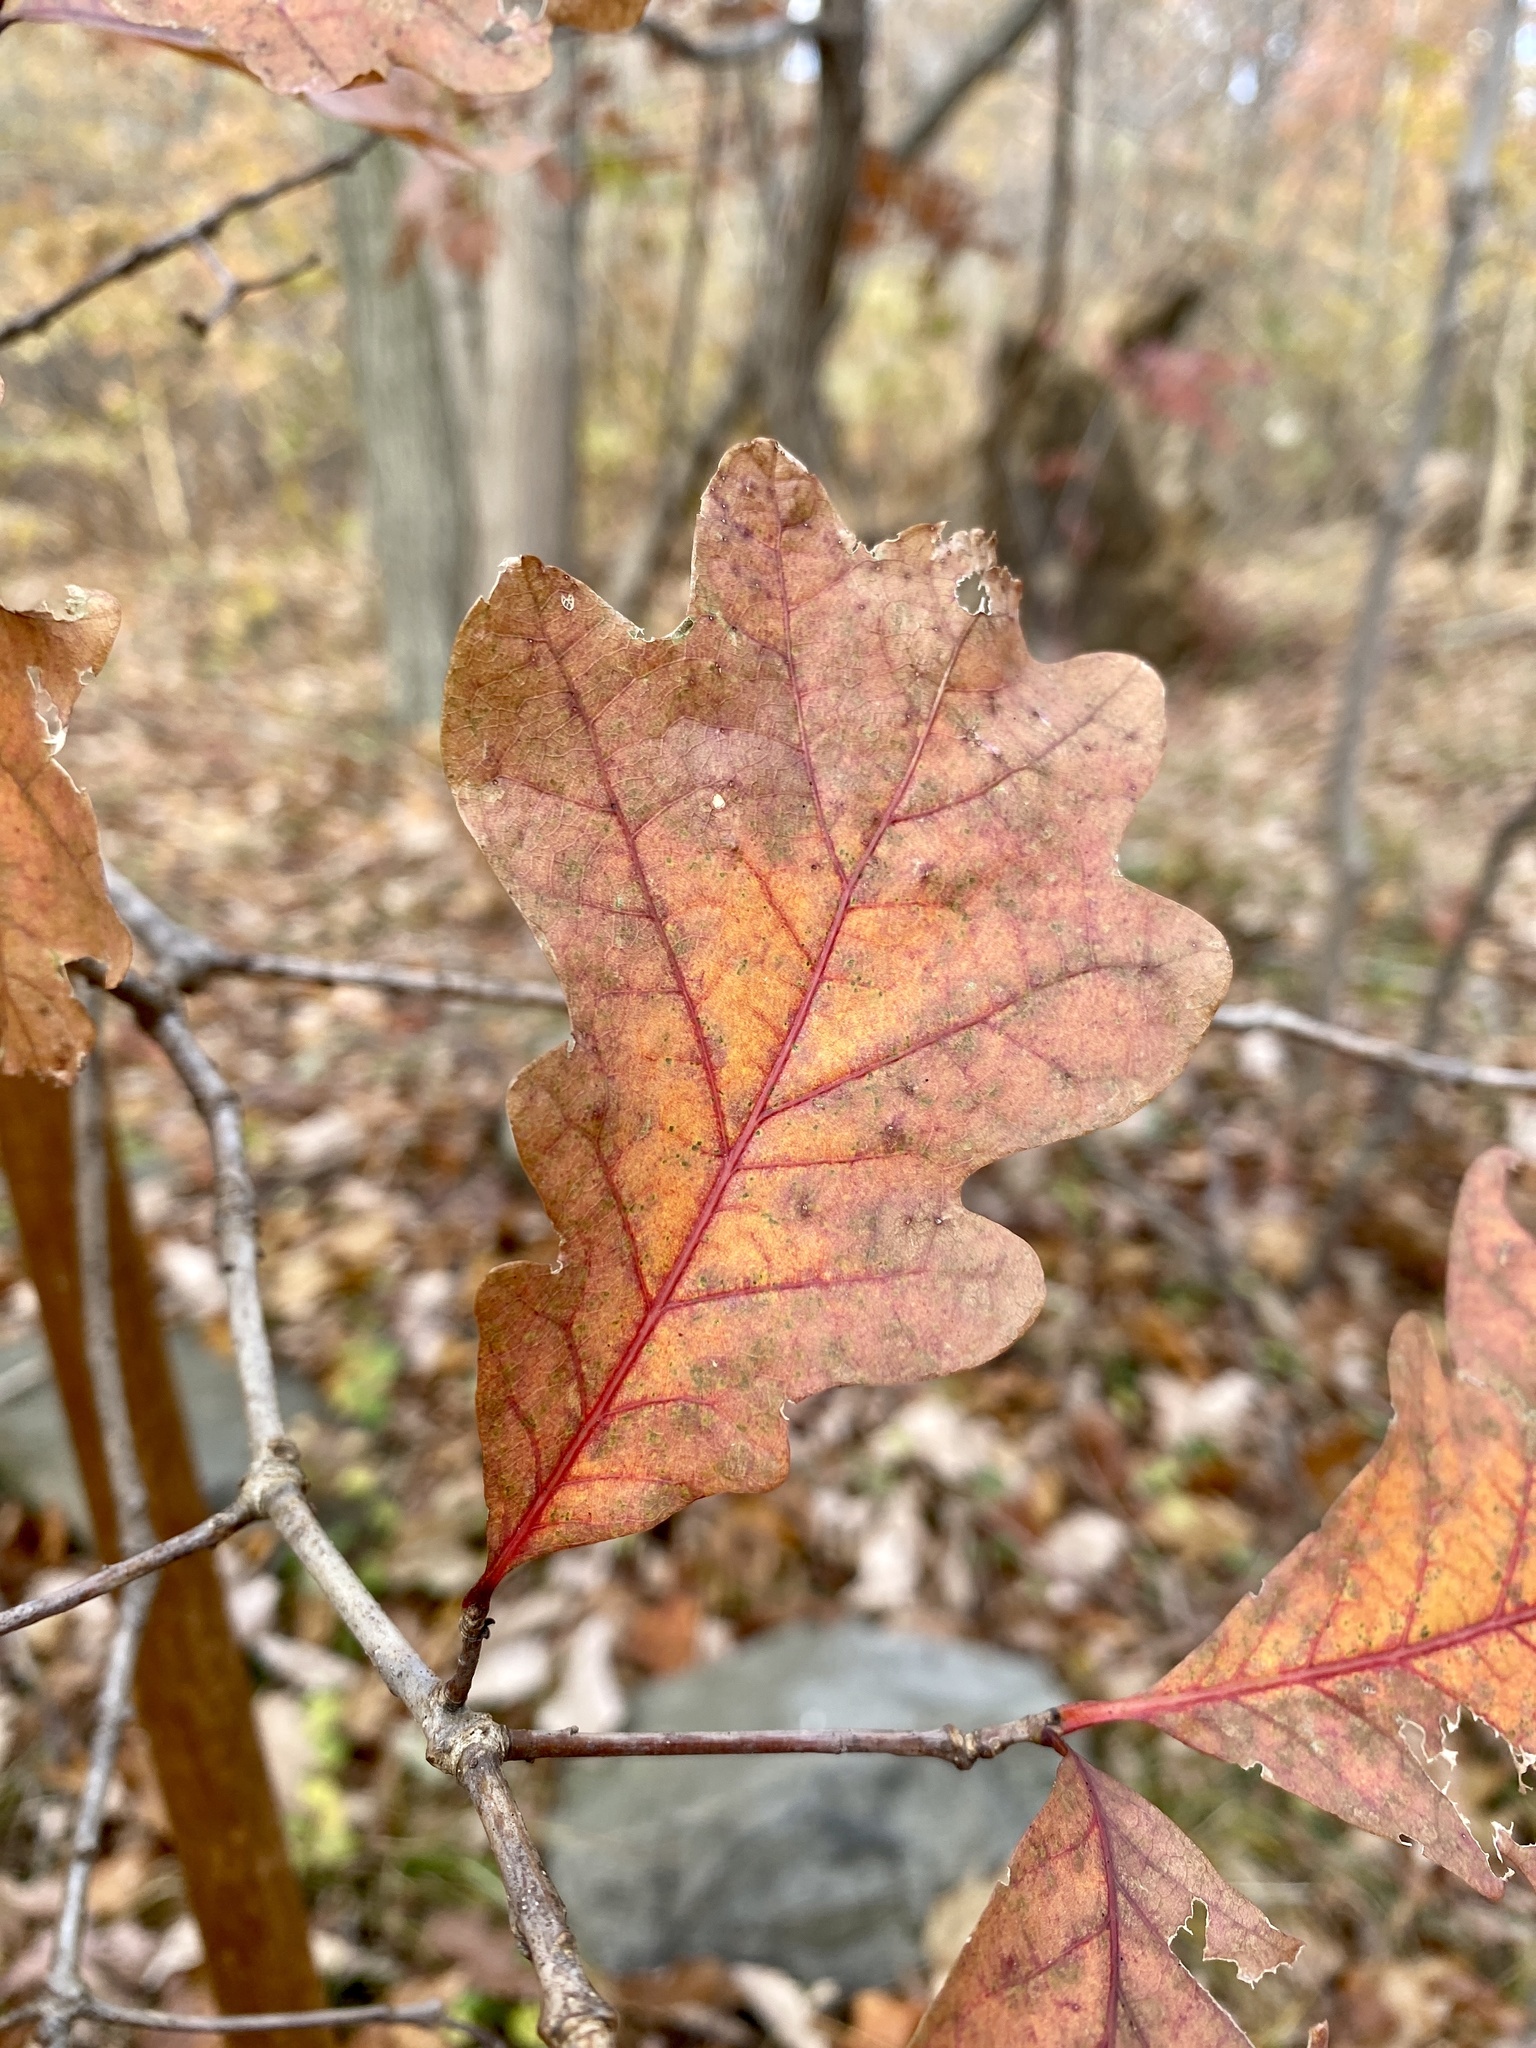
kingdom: Plantae
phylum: Tracheophyta
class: Magnoliopsida
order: Fagales
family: Fagaceae
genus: Quercus
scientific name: Quercus alba
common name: White oak
